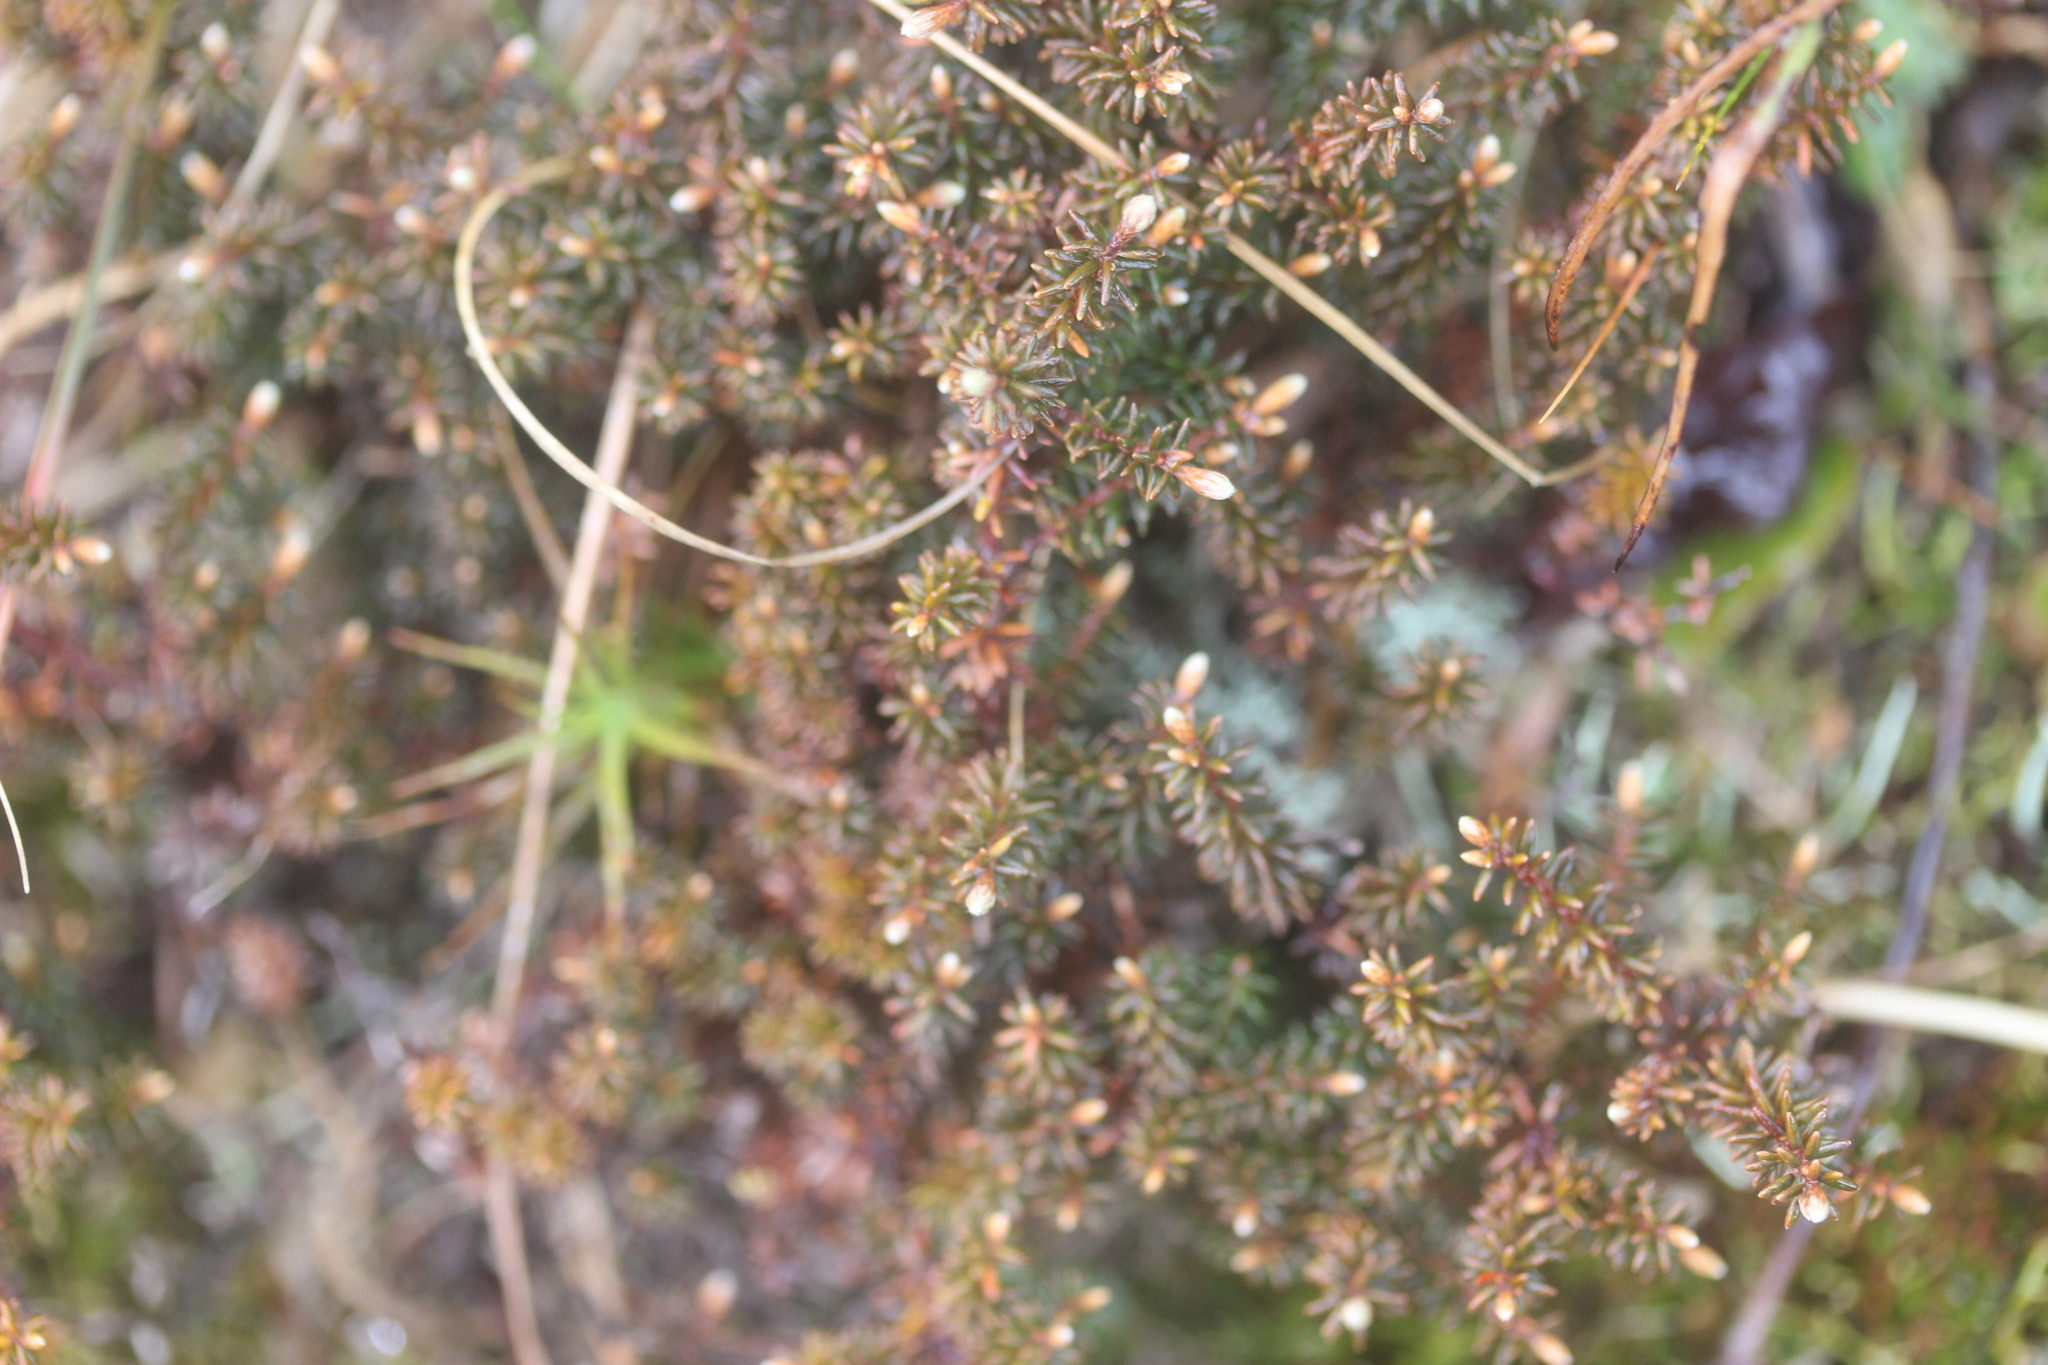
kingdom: Plantae
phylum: Tracheophyta
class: Magnoliopsida
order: Ericales
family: Ericaceae
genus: Androstoma
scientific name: Androstoma empetrifolia
